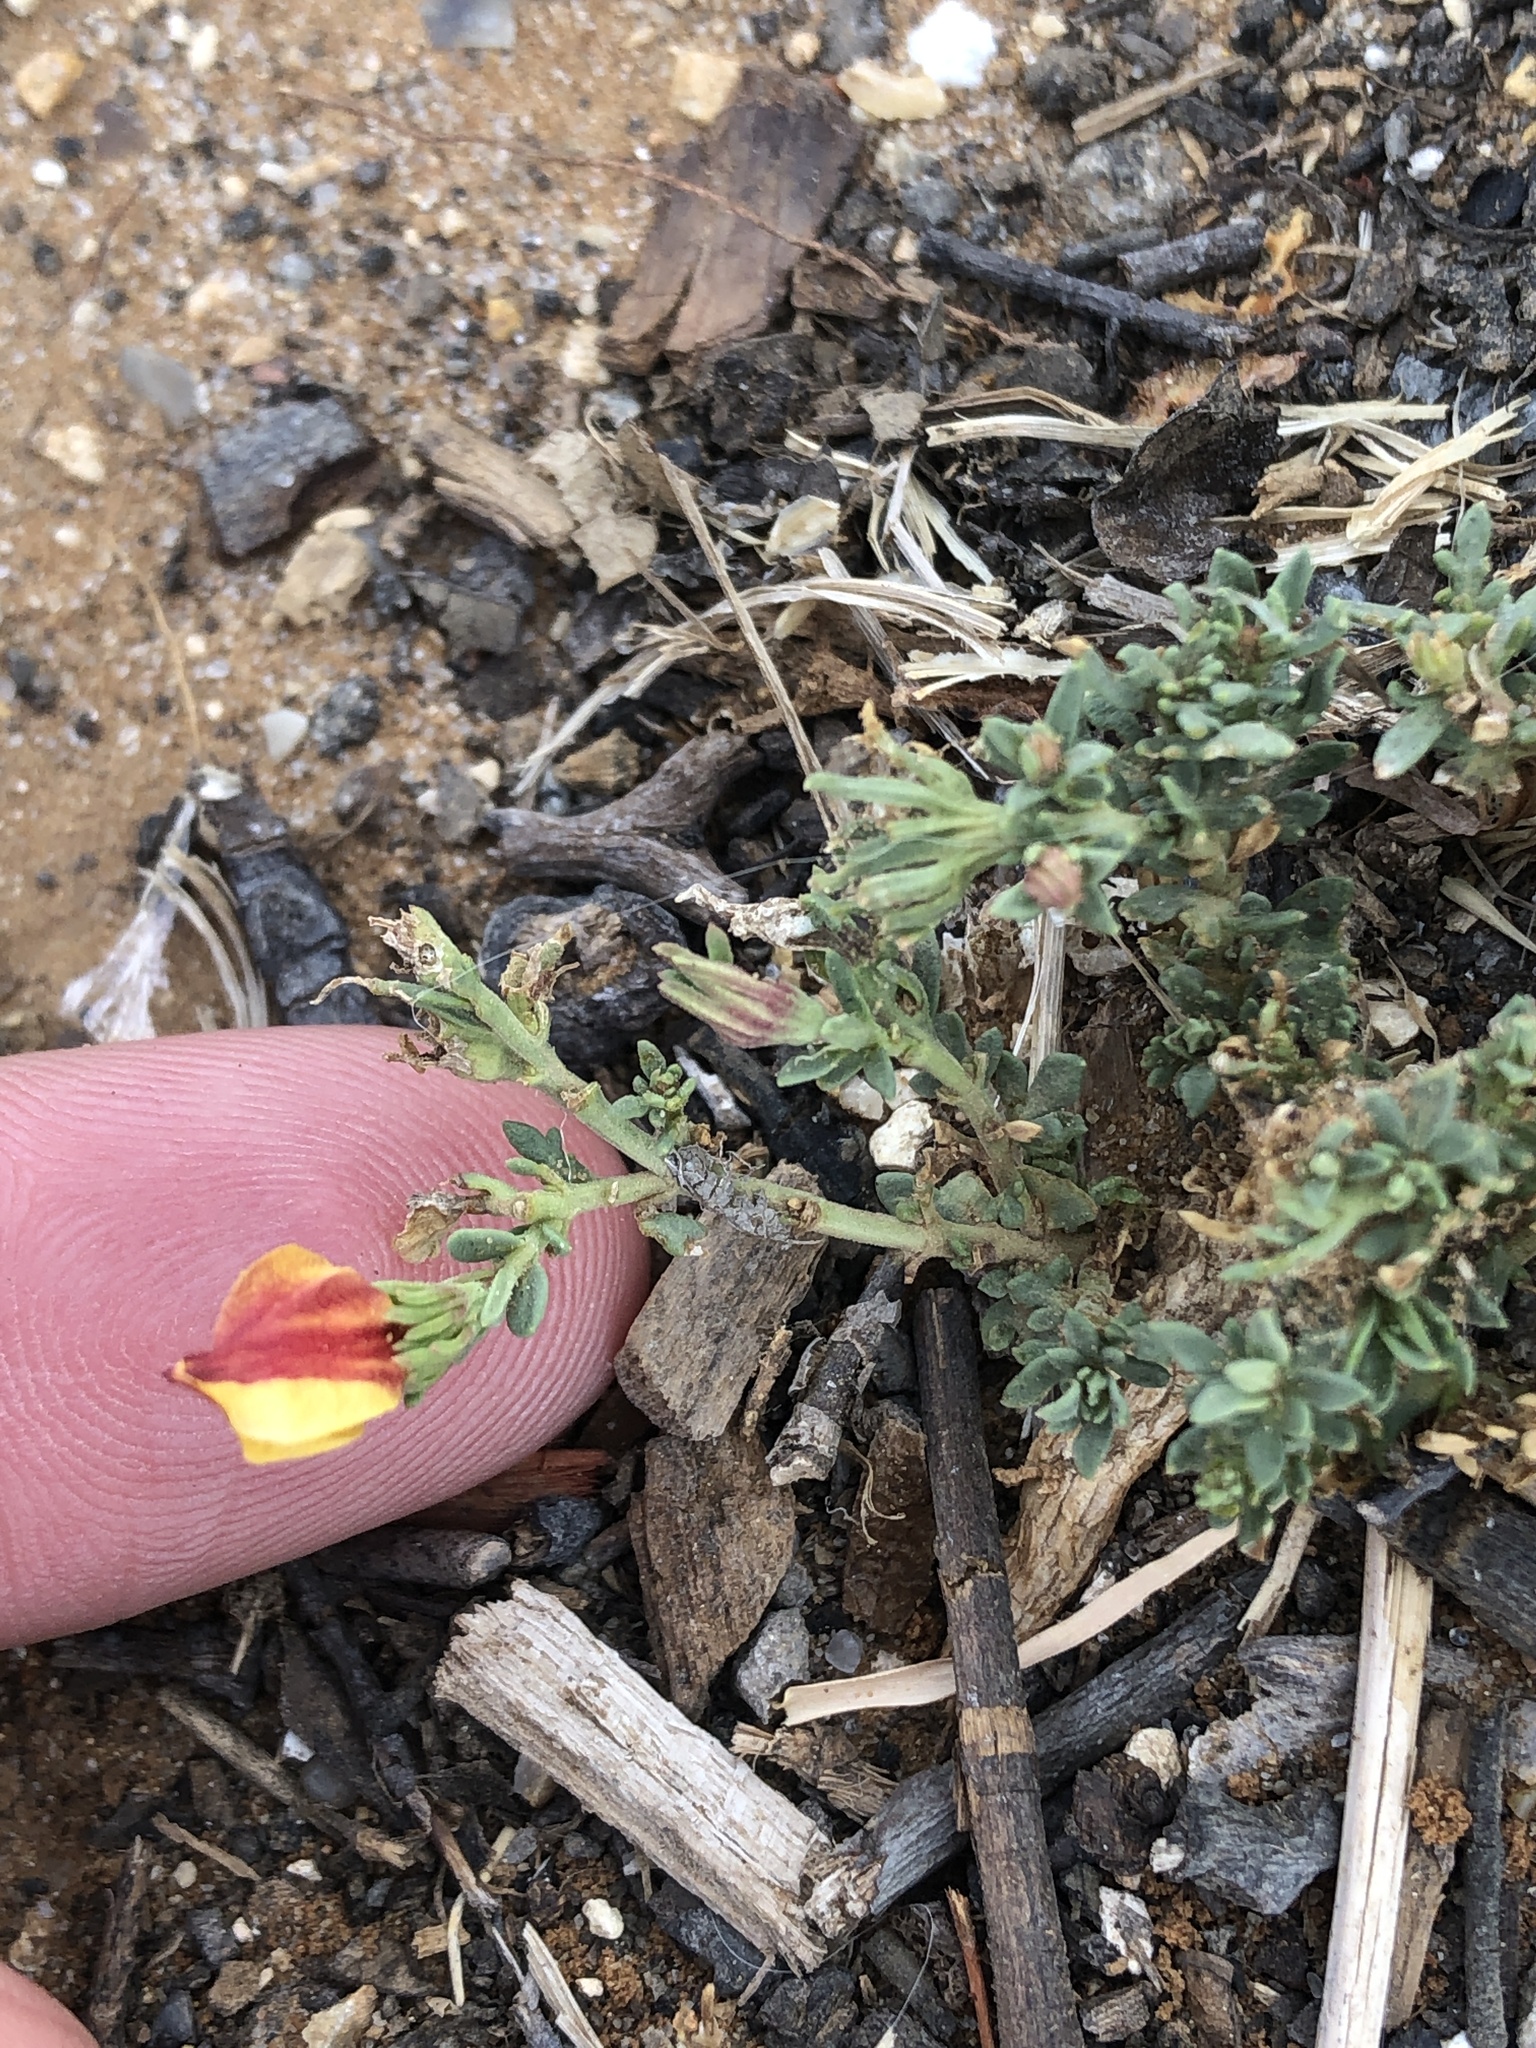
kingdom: Plantae
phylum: Tracheophyta
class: Magnoliopsida
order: Lamiales
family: Oleaceae
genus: Menodora
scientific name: Menodora heterophylla
